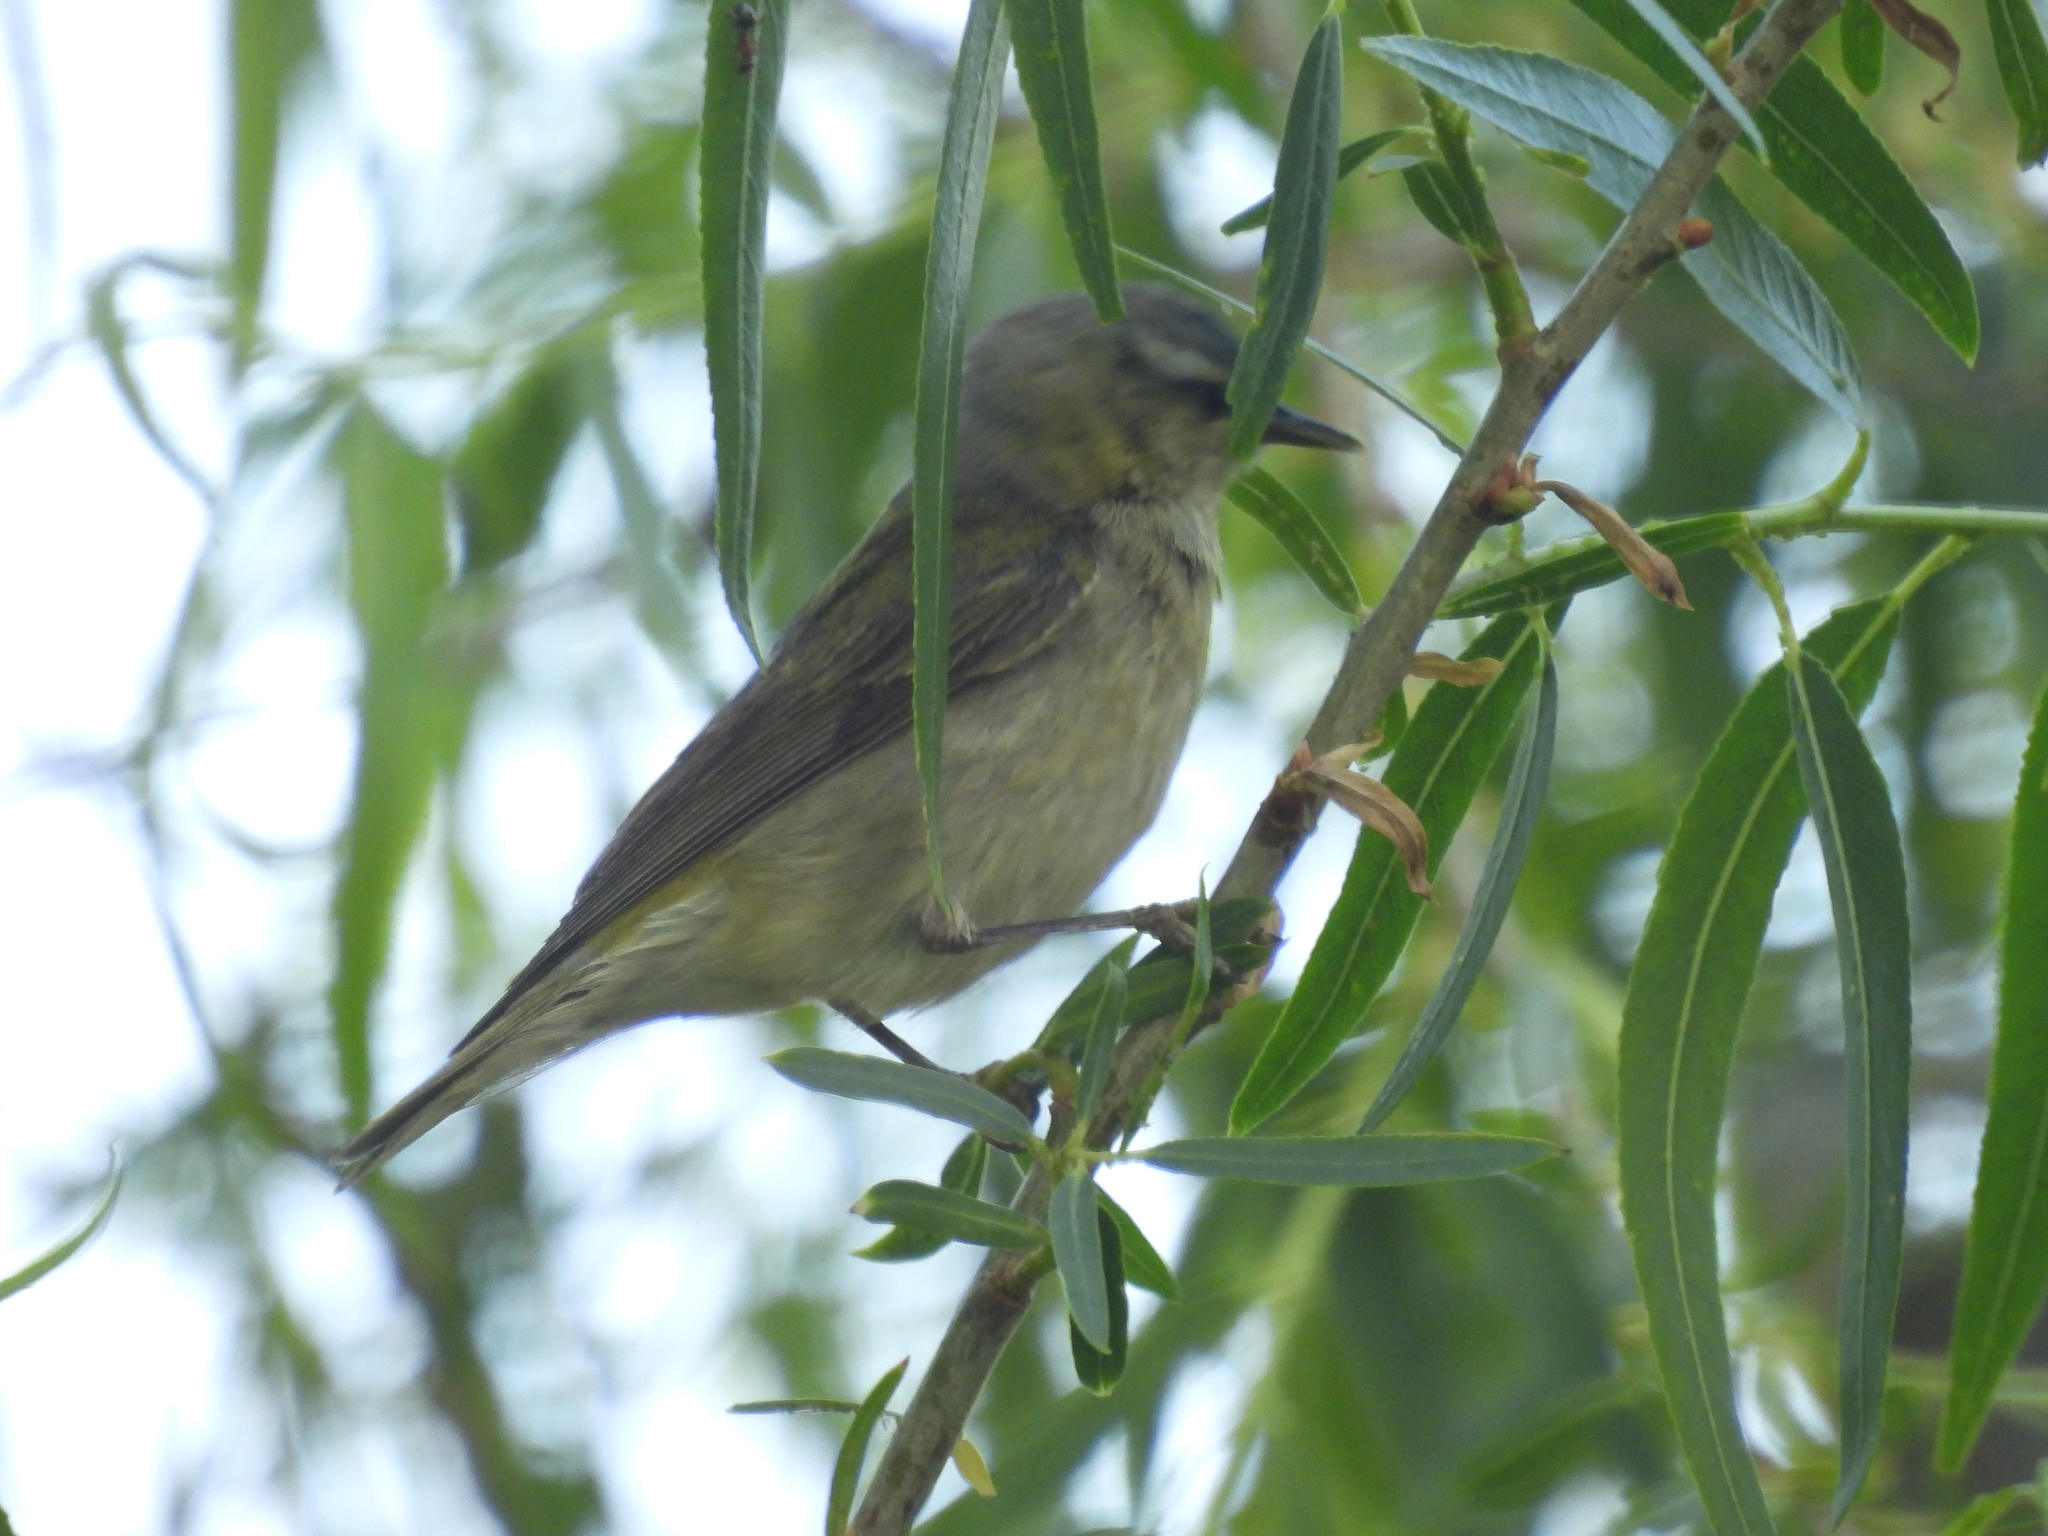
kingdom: Animalia
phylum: Chordata
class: Aves
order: Passeriformes
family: Parulidae
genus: Leiothlypis
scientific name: Leiothlypis peregrina
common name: Tennessee warbler
